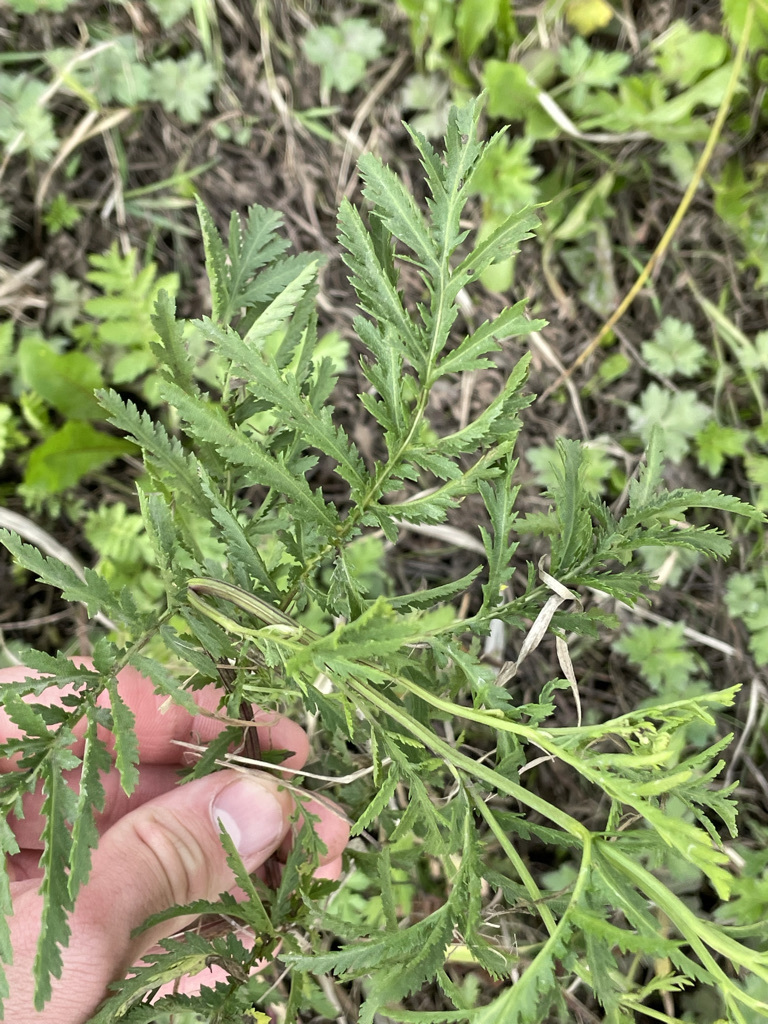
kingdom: Plantae
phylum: Tracheophyta
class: Magnoliopsida
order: Asterales
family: Asteraceae
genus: Tanacetum
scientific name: Tanacetum vulgare
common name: Common tansy
